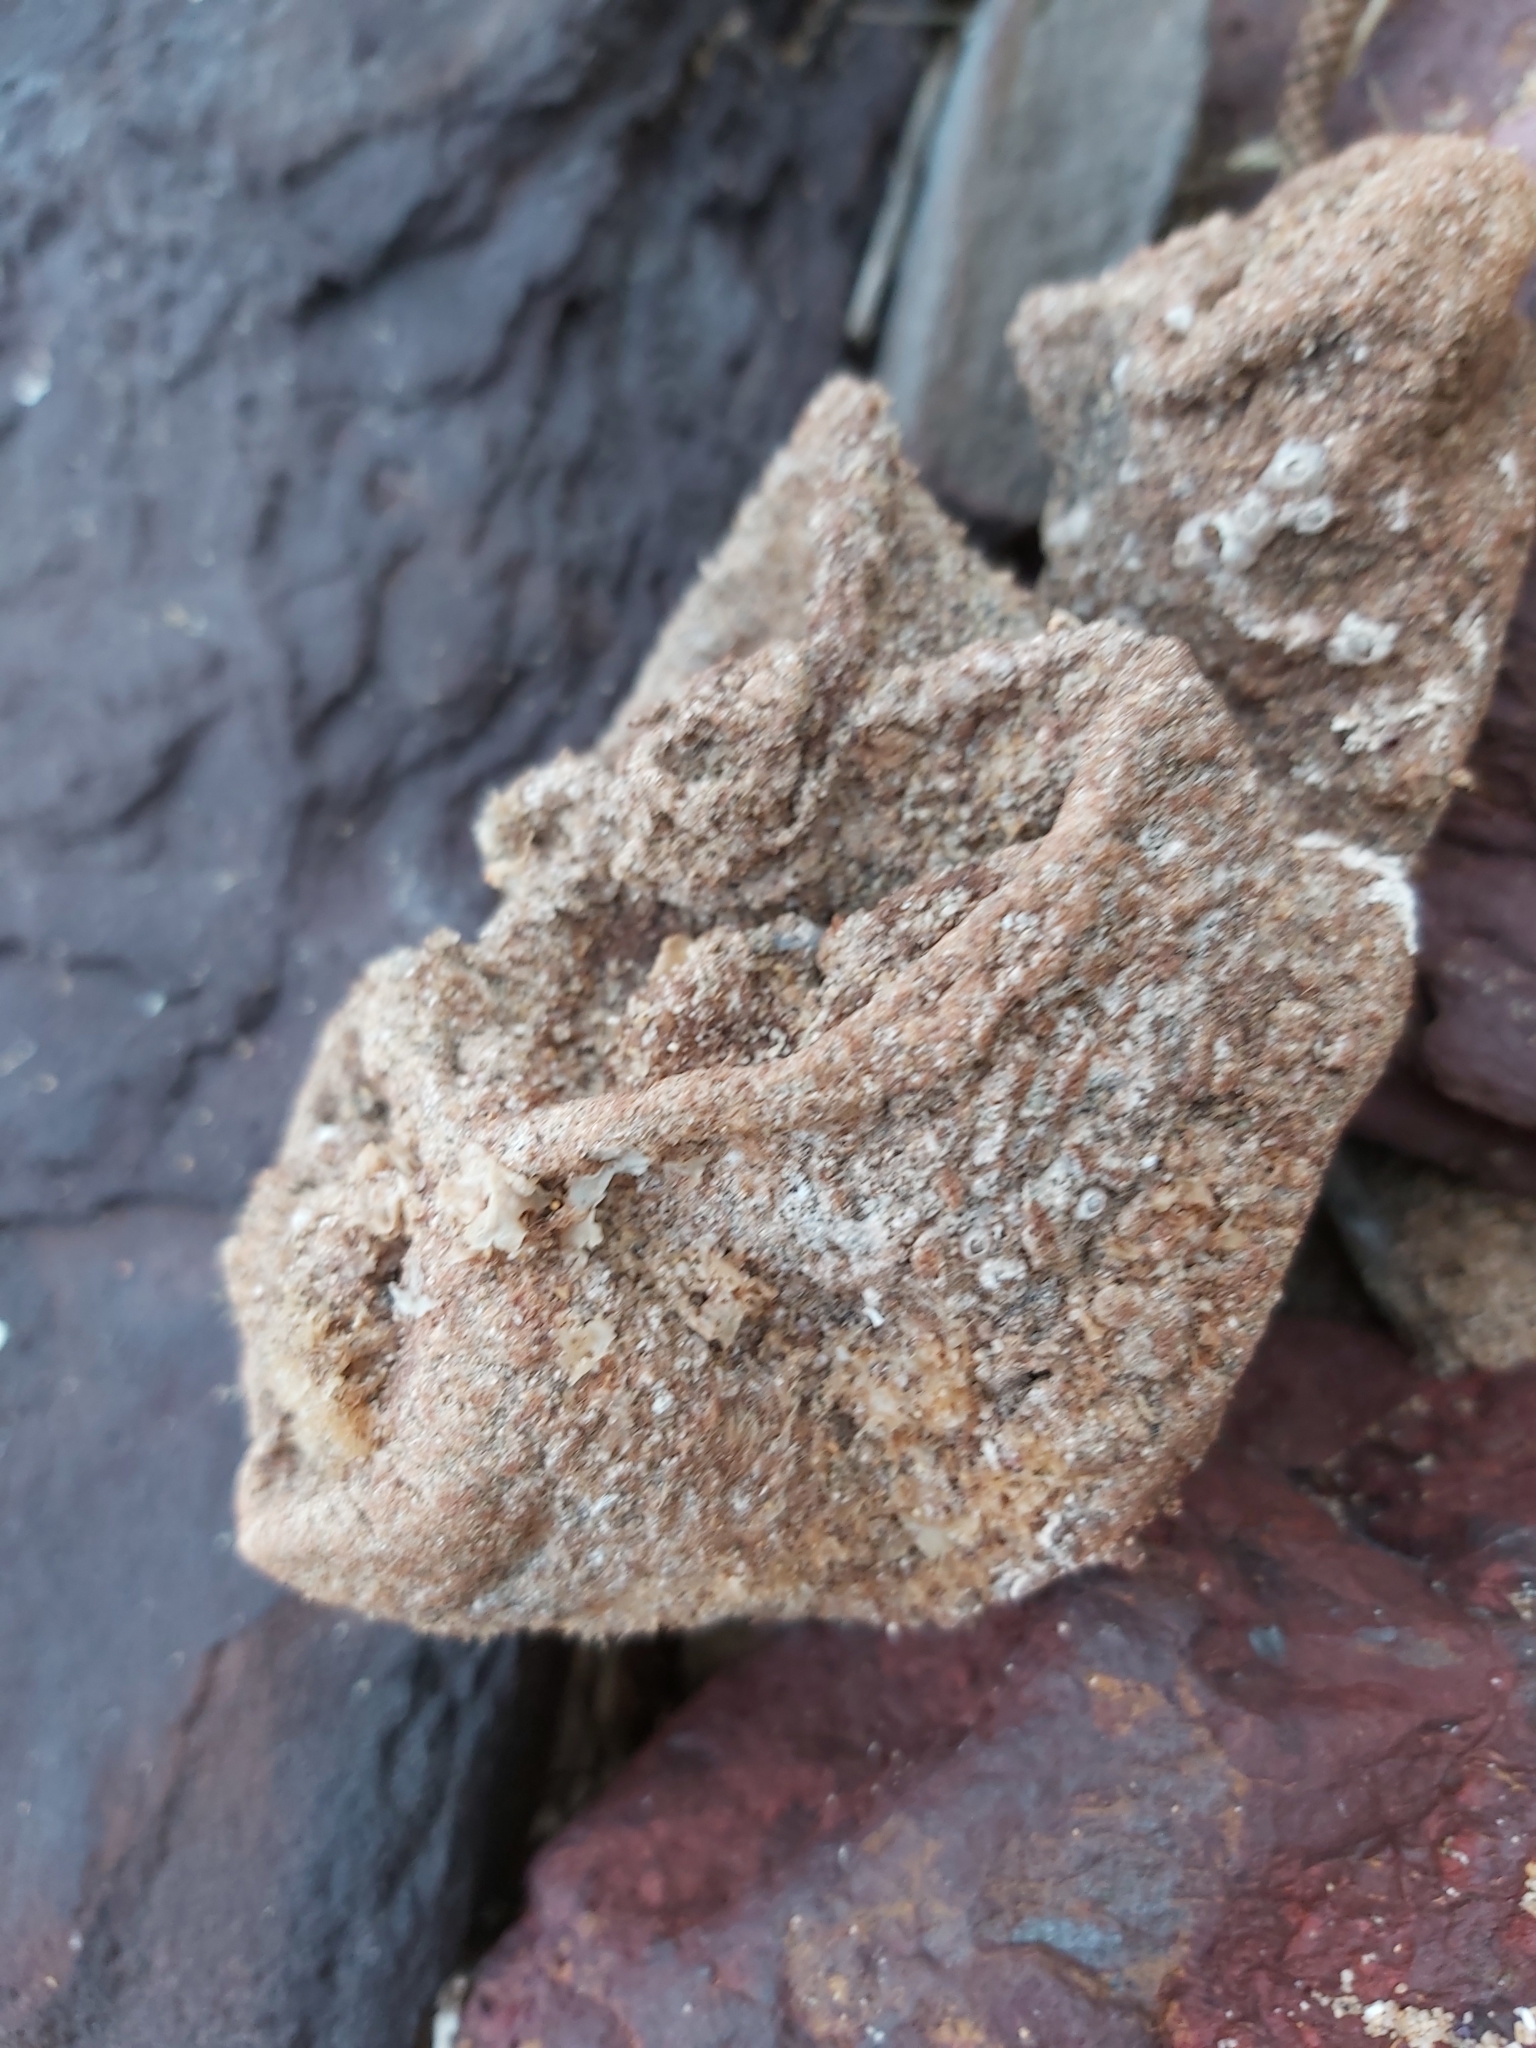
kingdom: Animalia
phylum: Chordata
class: Ascidiacea
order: Stolidobranchia
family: Pyuridae
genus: Pyura
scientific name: Pyura praeputialis
